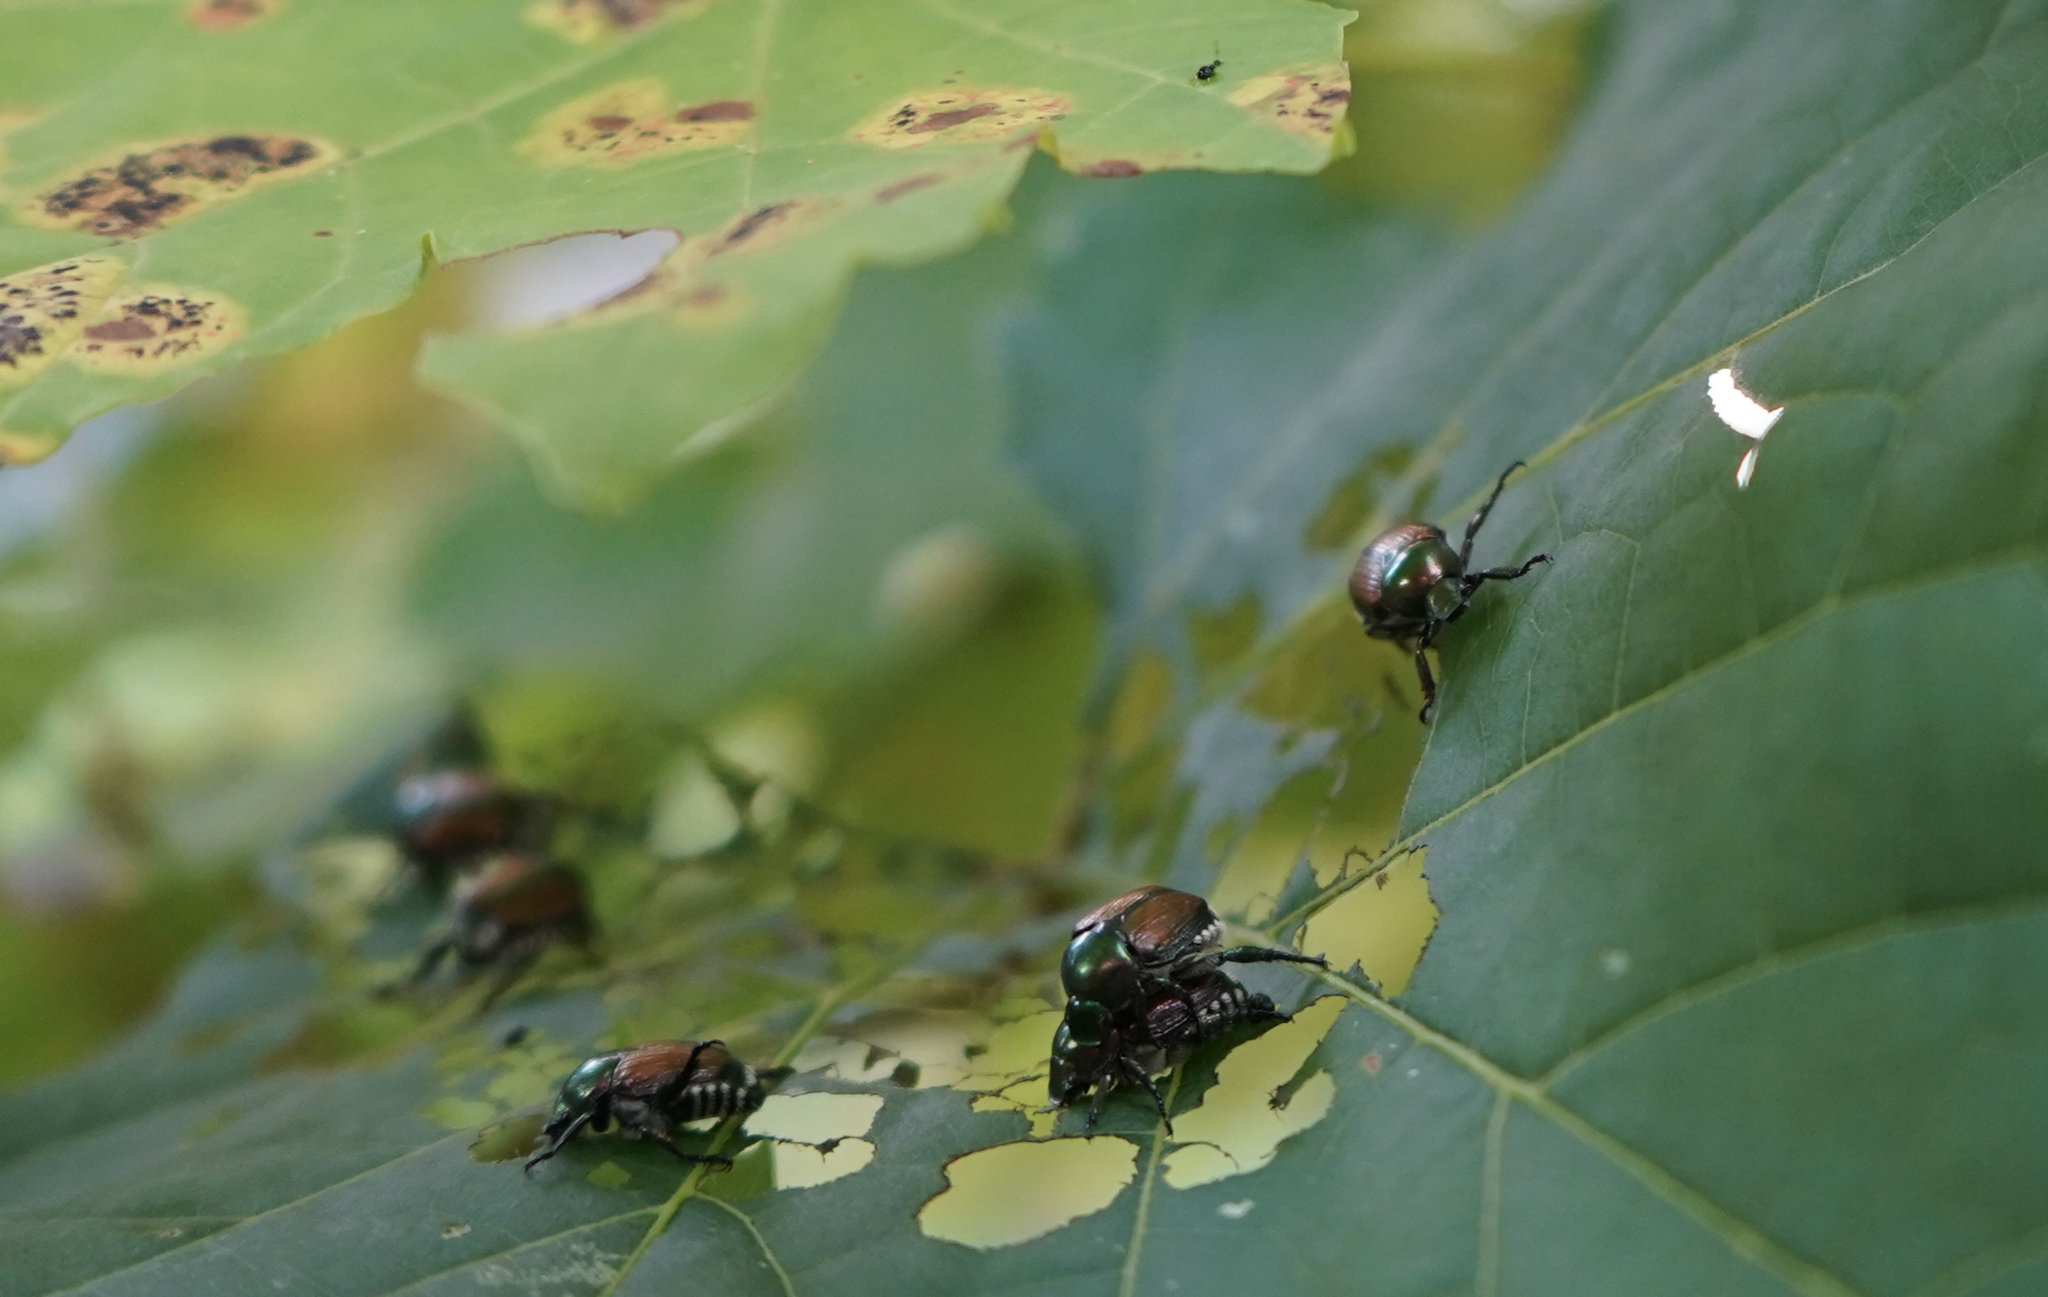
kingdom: Animalia
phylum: Arthropoda
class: Insecta
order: Coleoptera
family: Scarabaeidae
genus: Popillia
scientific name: Popillia japonica
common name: Japanese beetle
